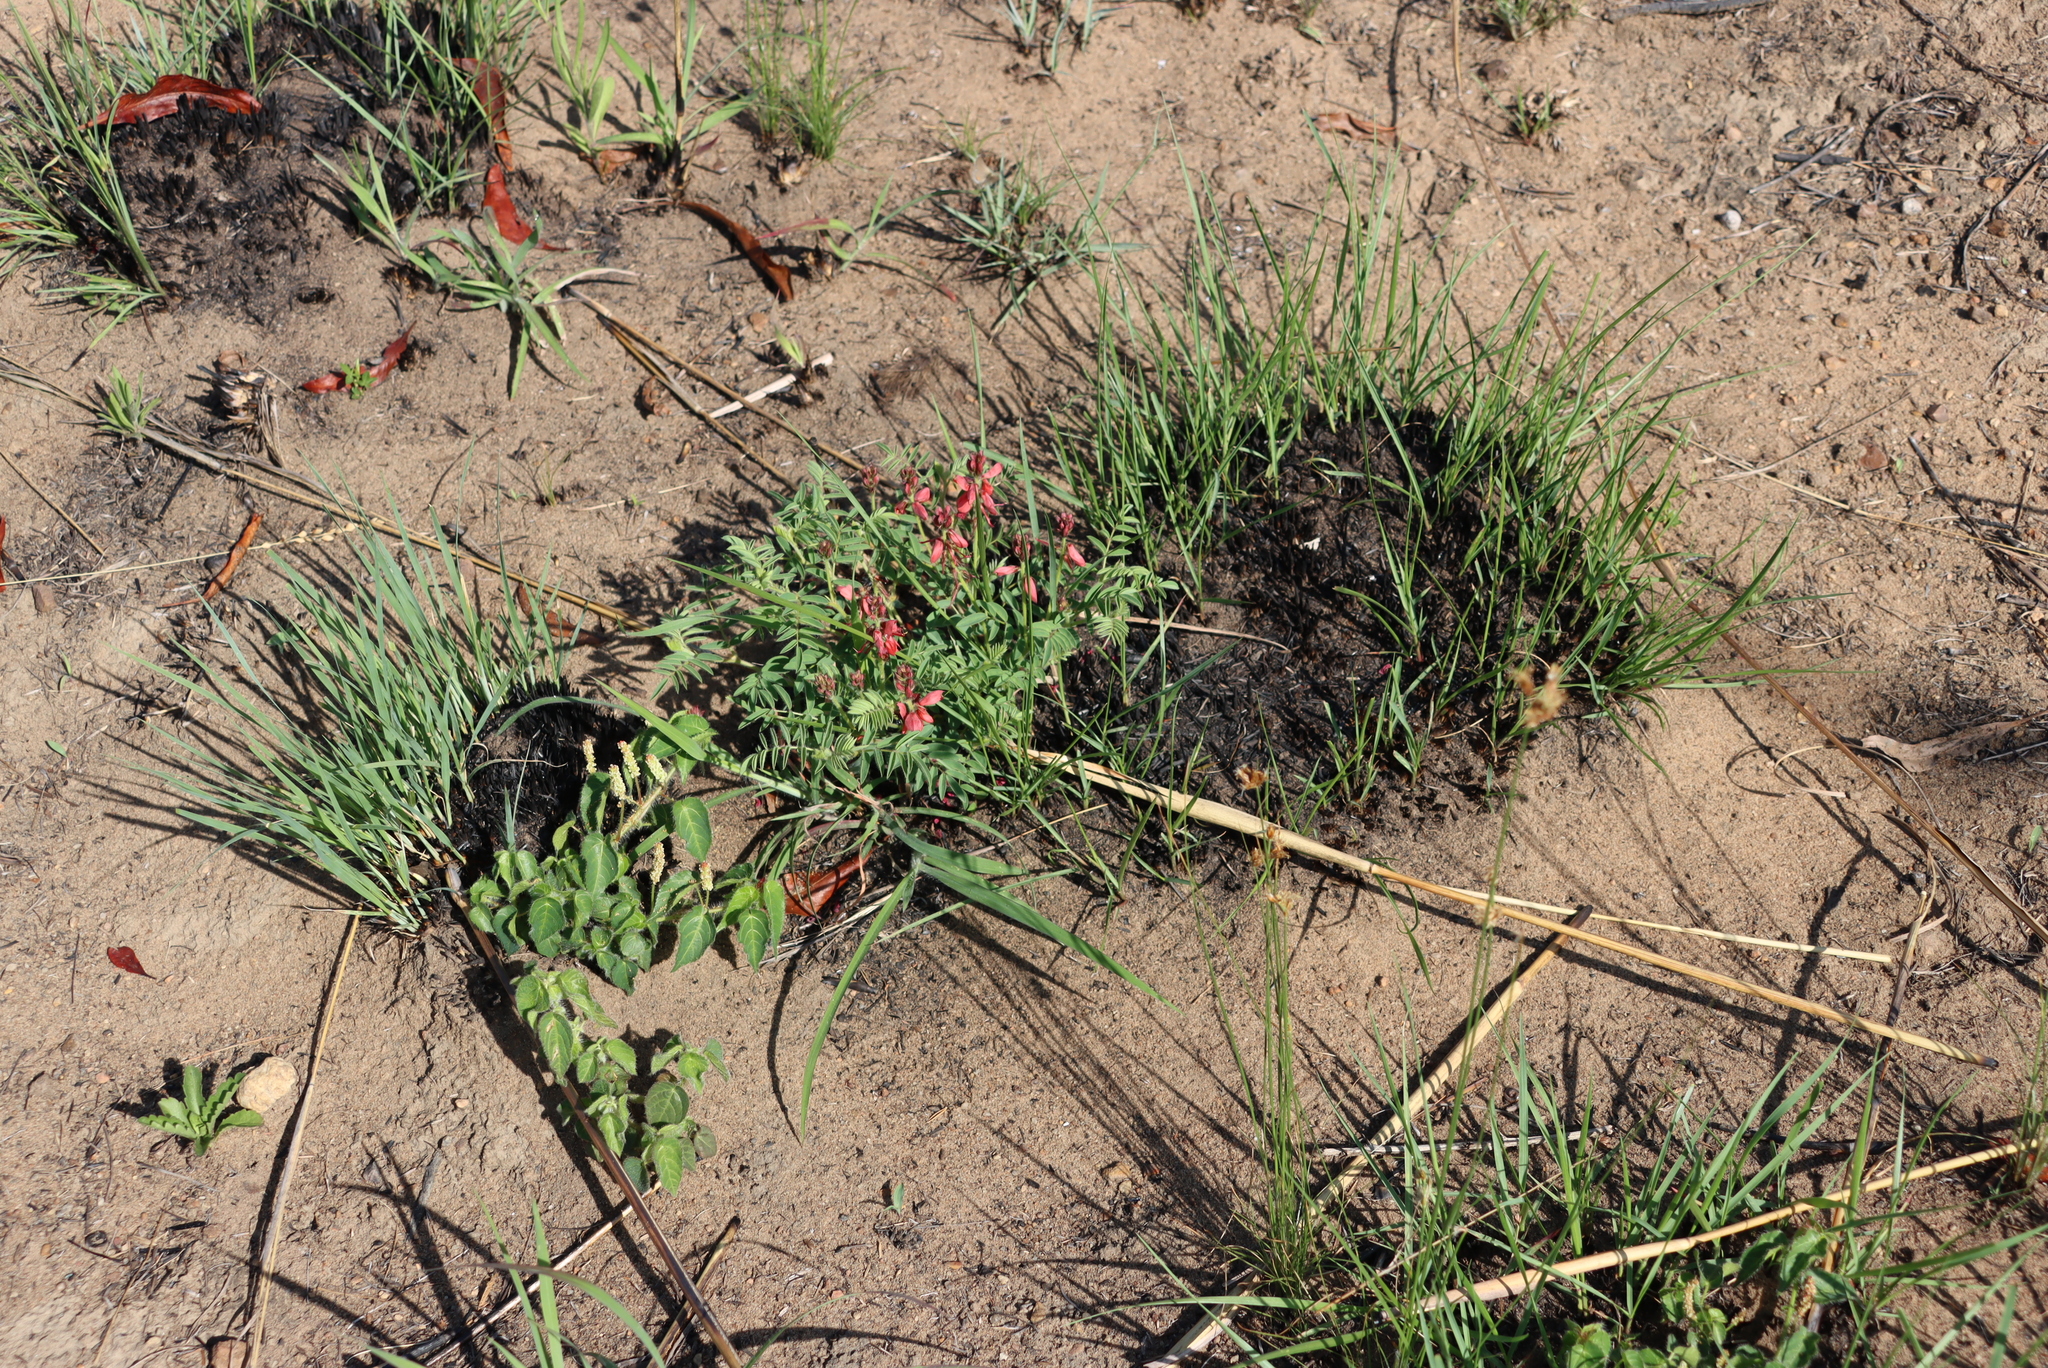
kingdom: Plantae
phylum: Tracheophyta
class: Magnoliopsida
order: Fabales
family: Fabaceae
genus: Indigofera
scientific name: Indigofera williamsonii
